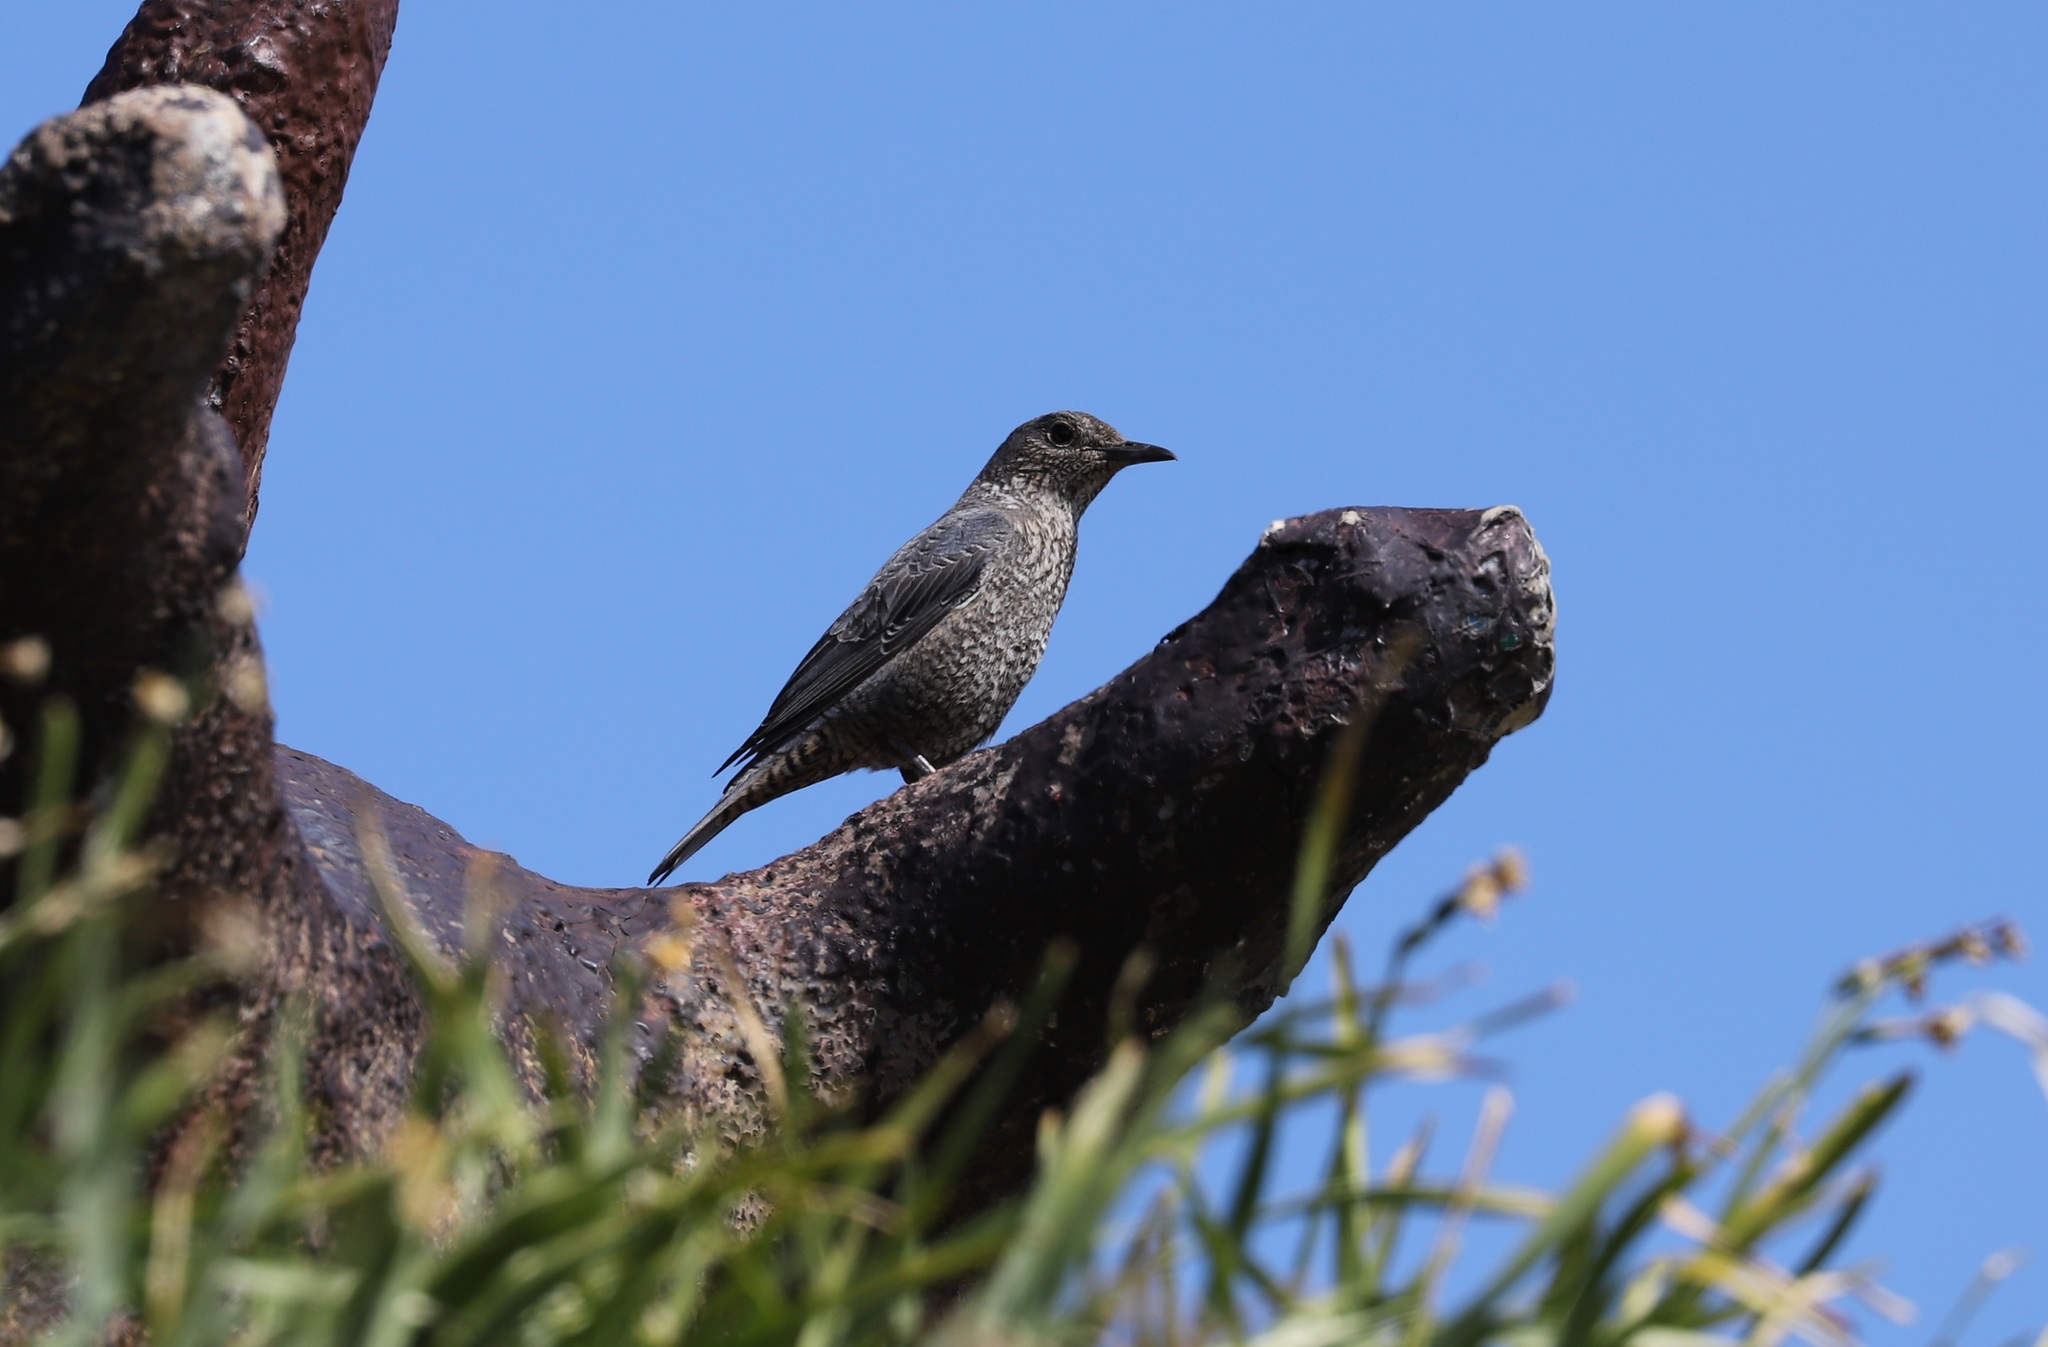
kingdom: Animalia
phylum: Chordata
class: Aves
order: Passeriformes
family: Muscicapidae
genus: Monticola
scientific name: Monticola solitarius
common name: Blue rock thrush
